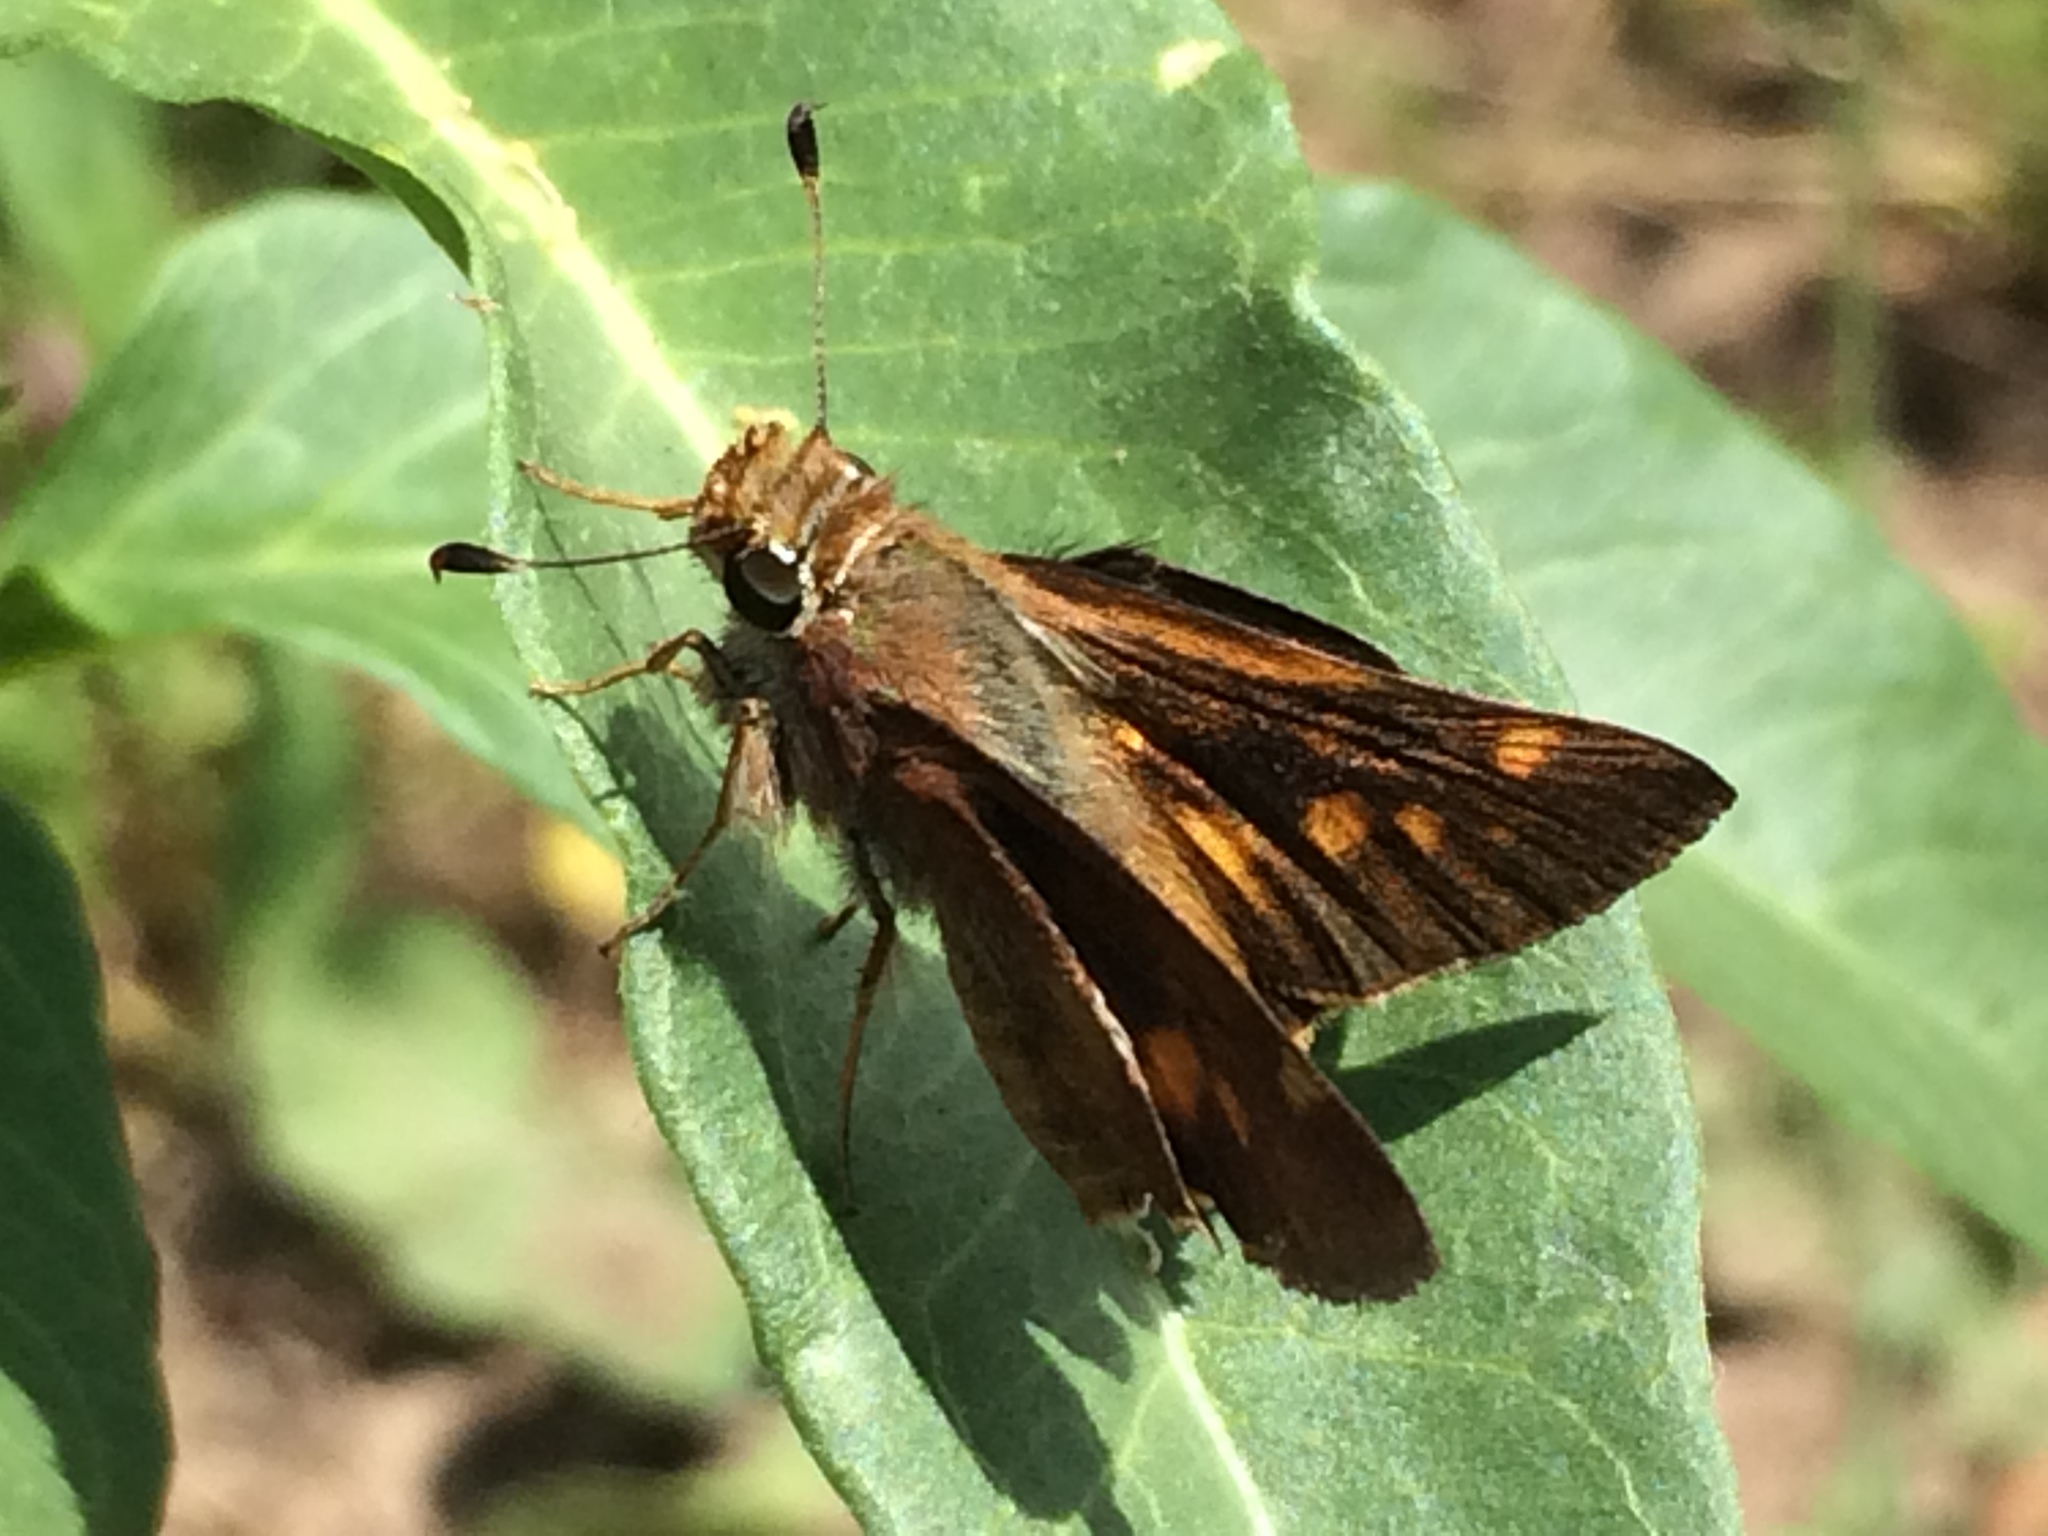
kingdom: Animalia
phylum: Arthropoda
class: Insecta
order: Lepidoptera
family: Hesperiidae
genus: Lon
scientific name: Lon melane
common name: Umber skipper
